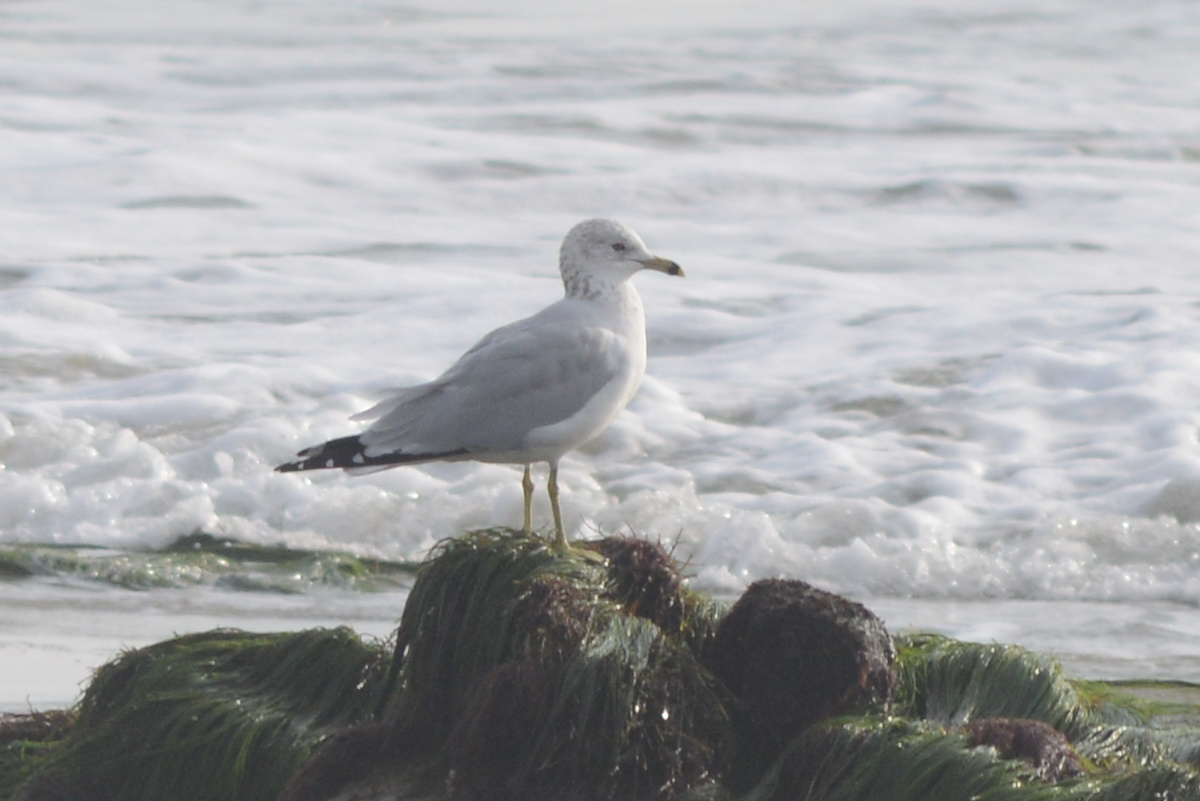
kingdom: Animalia
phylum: Chordata
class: Aves
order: Charadriiformes
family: Laridae
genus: Larus
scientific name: Larus delawarensis
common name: Ring-billed gull
